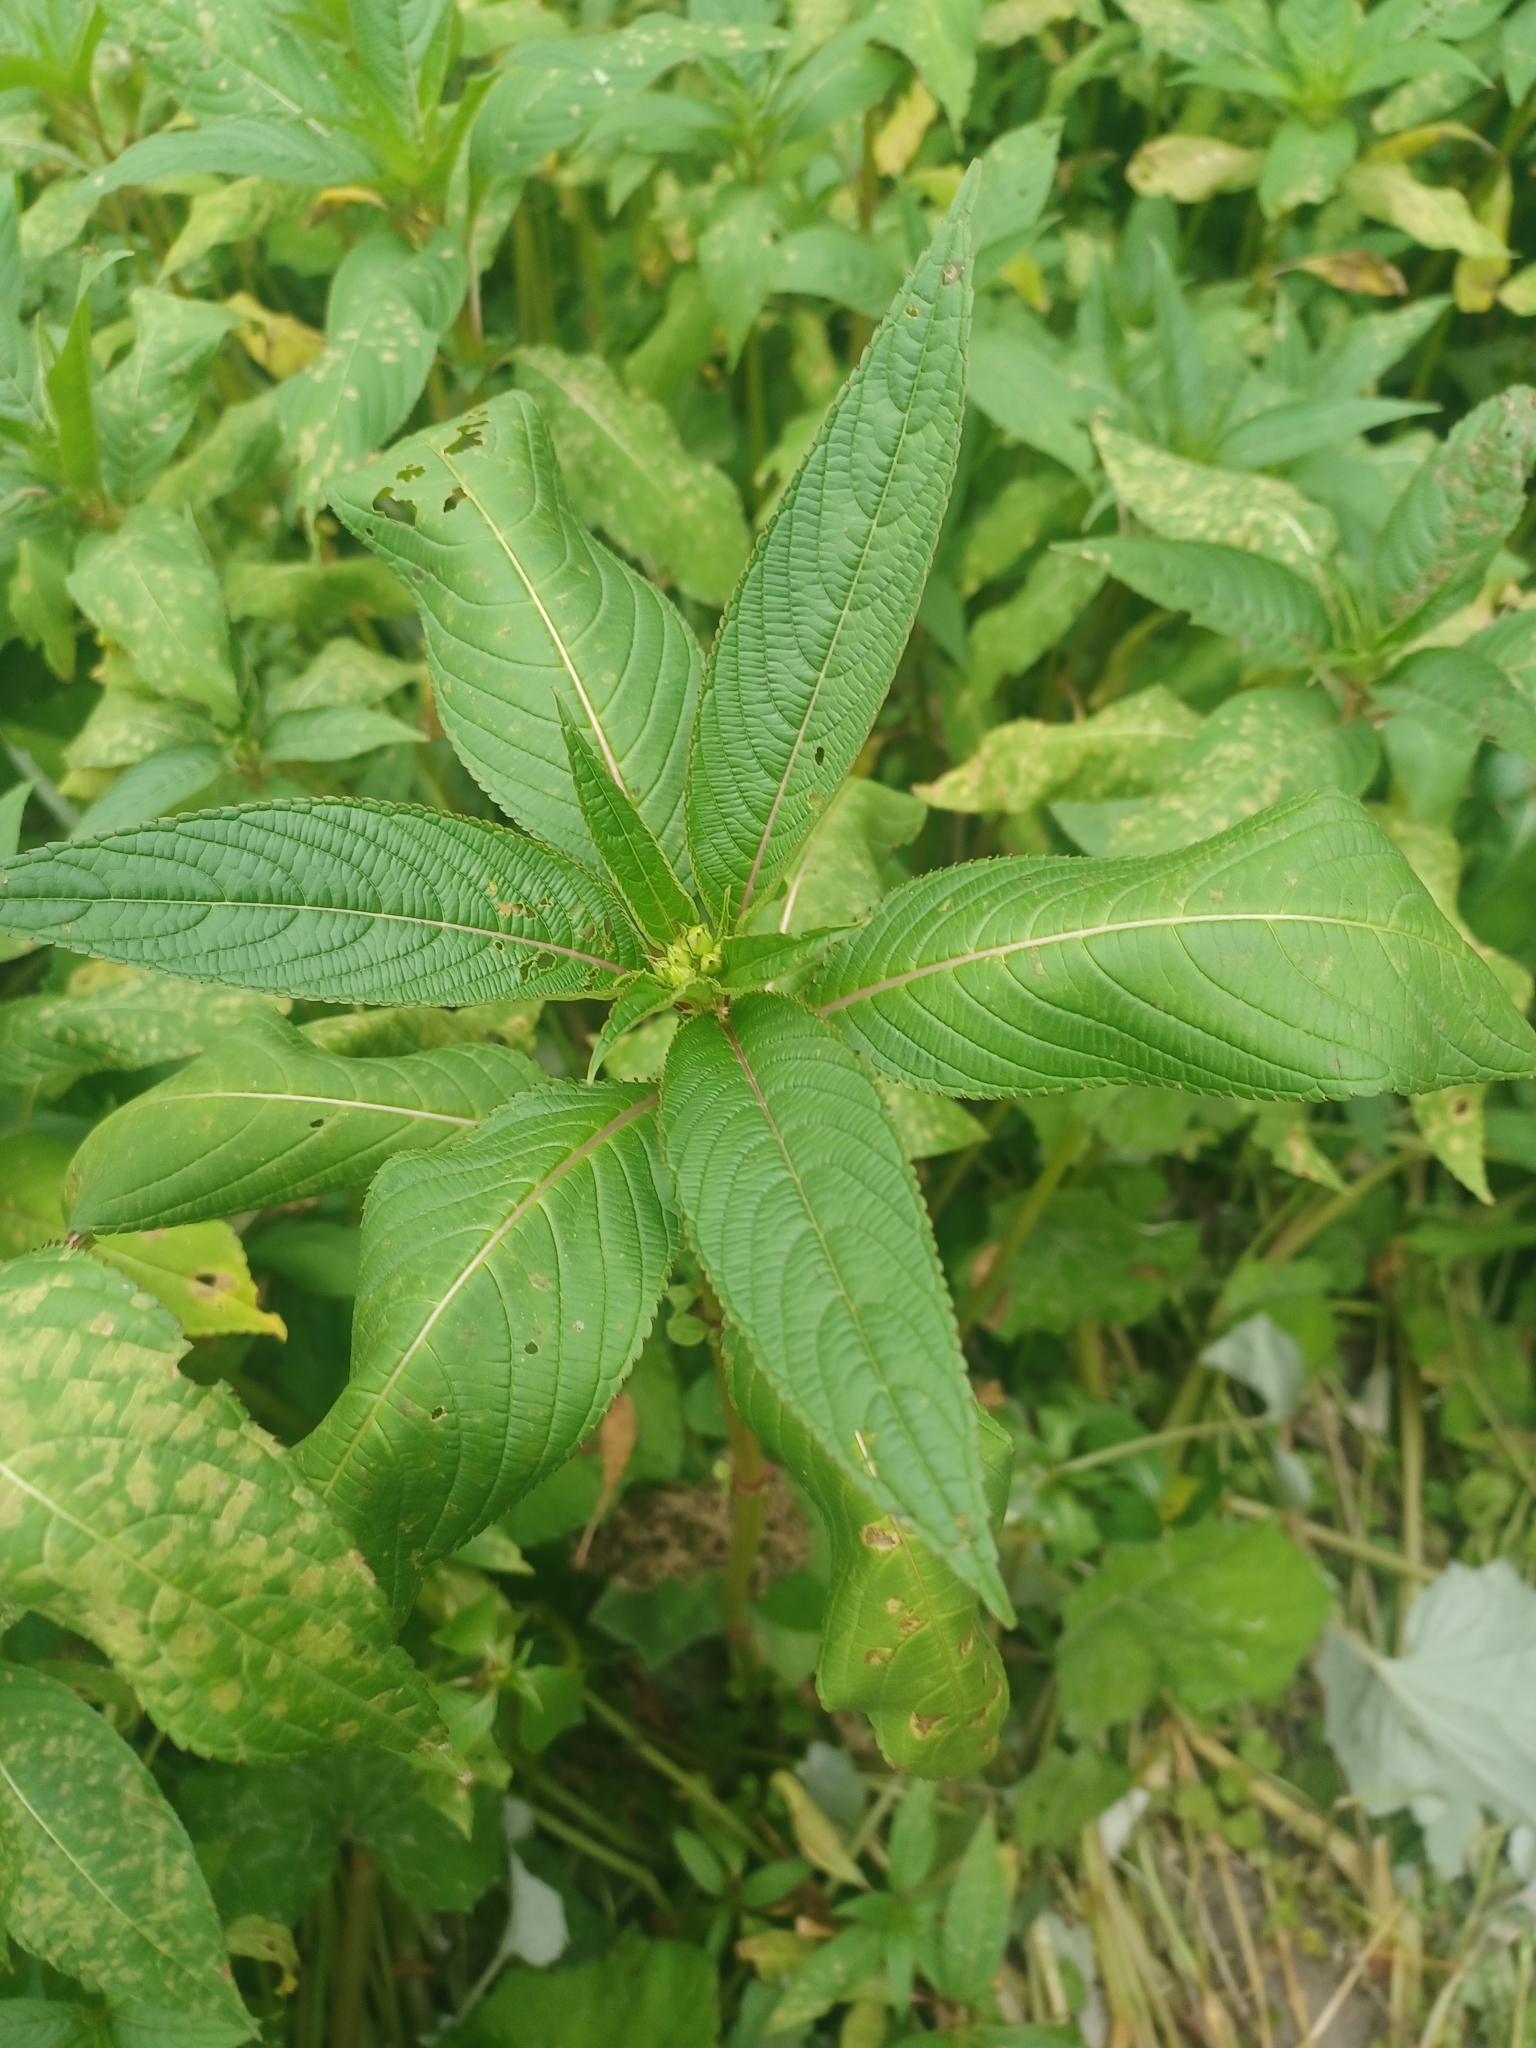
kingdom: Plantae
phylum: Tracheophyta
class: Magnoliopsida
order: Ericales
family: Balsaminaceae
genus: Impatiens
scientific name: Impatiens glandulifera
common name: Himalayan balsam
